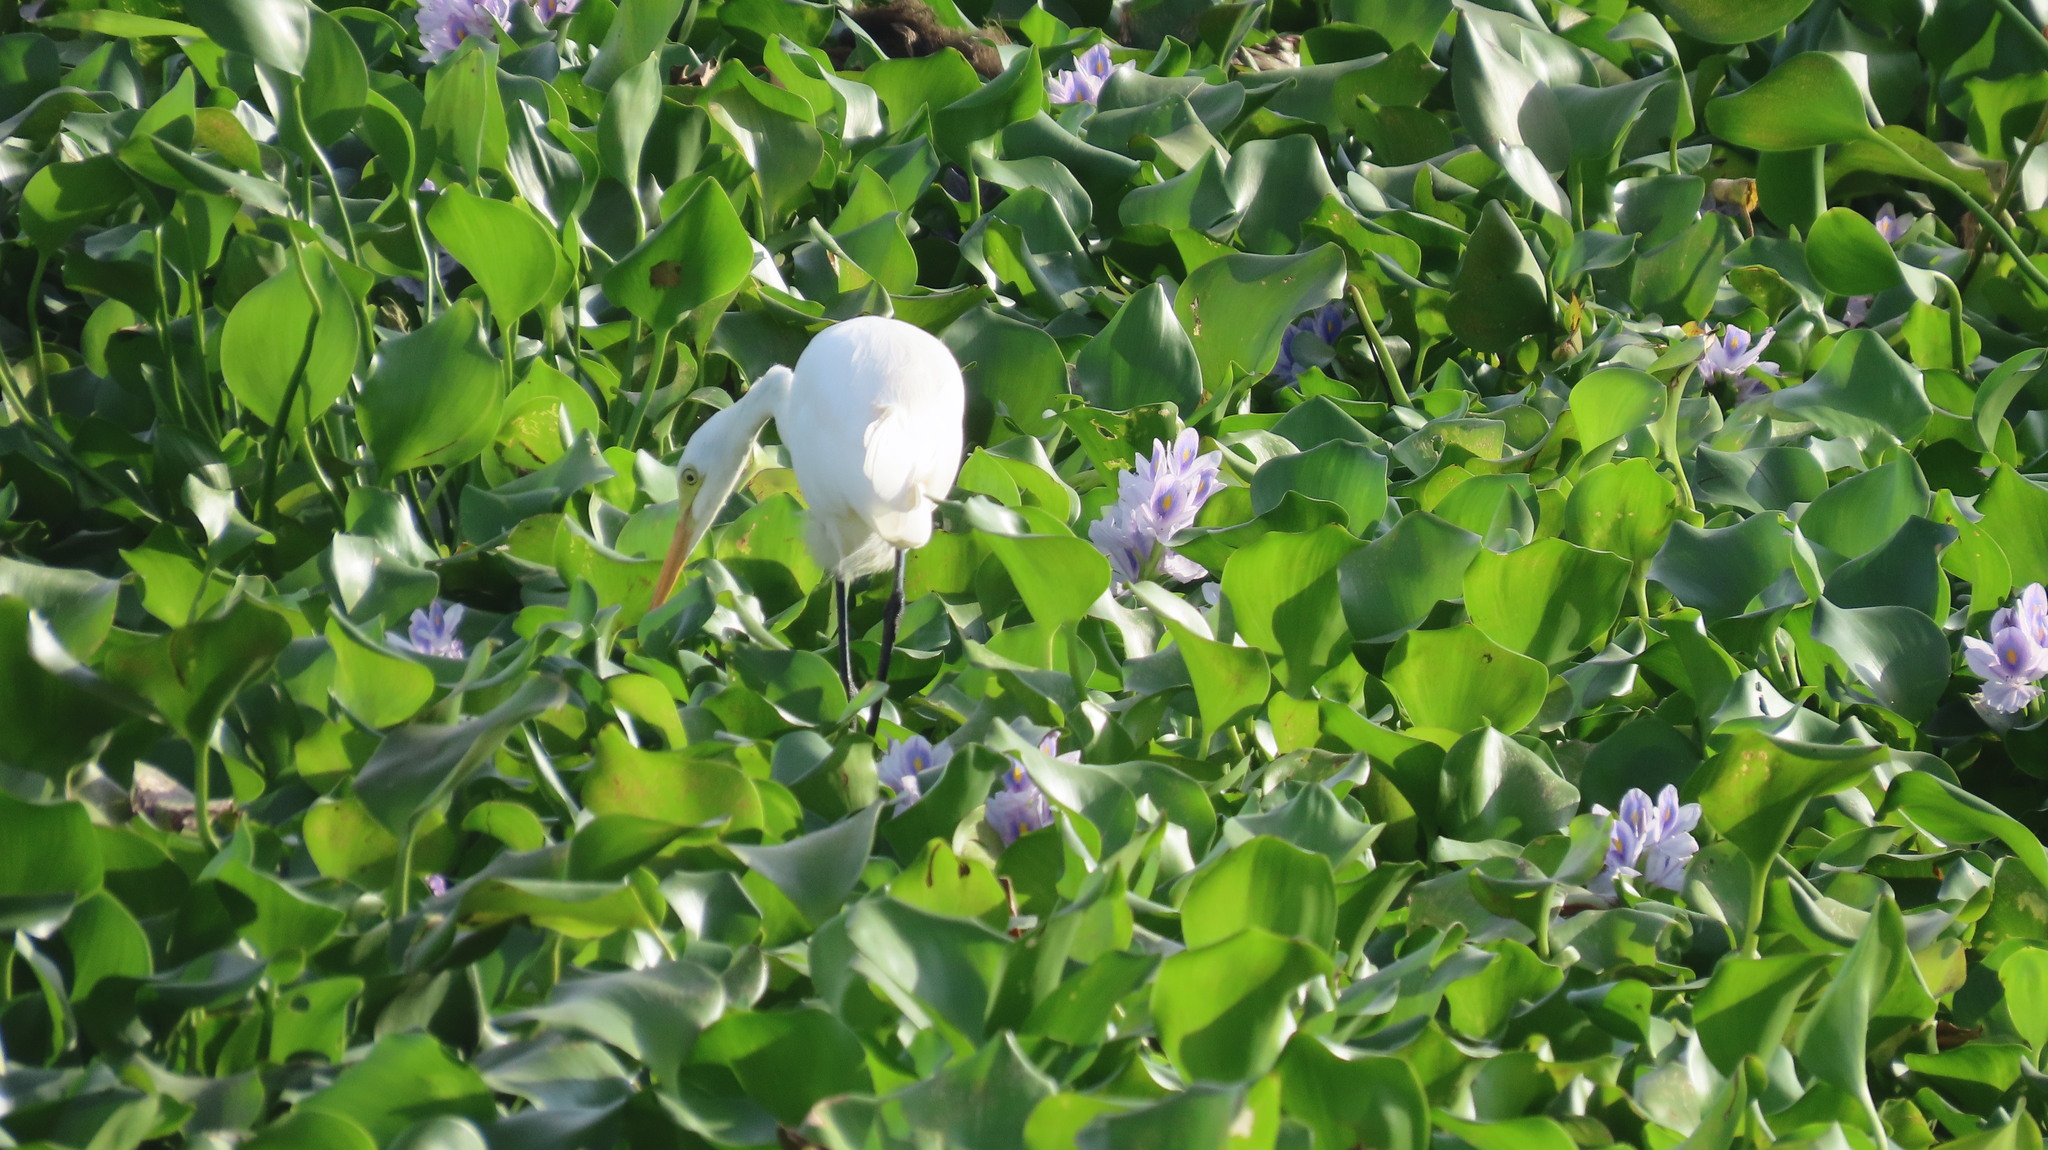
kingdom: Animalia
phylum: Chordata
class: Aves
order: Pelecaniformes
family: Ardeidae
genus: Egretta
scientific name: Egretta intermedia
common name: Intermediate egret
